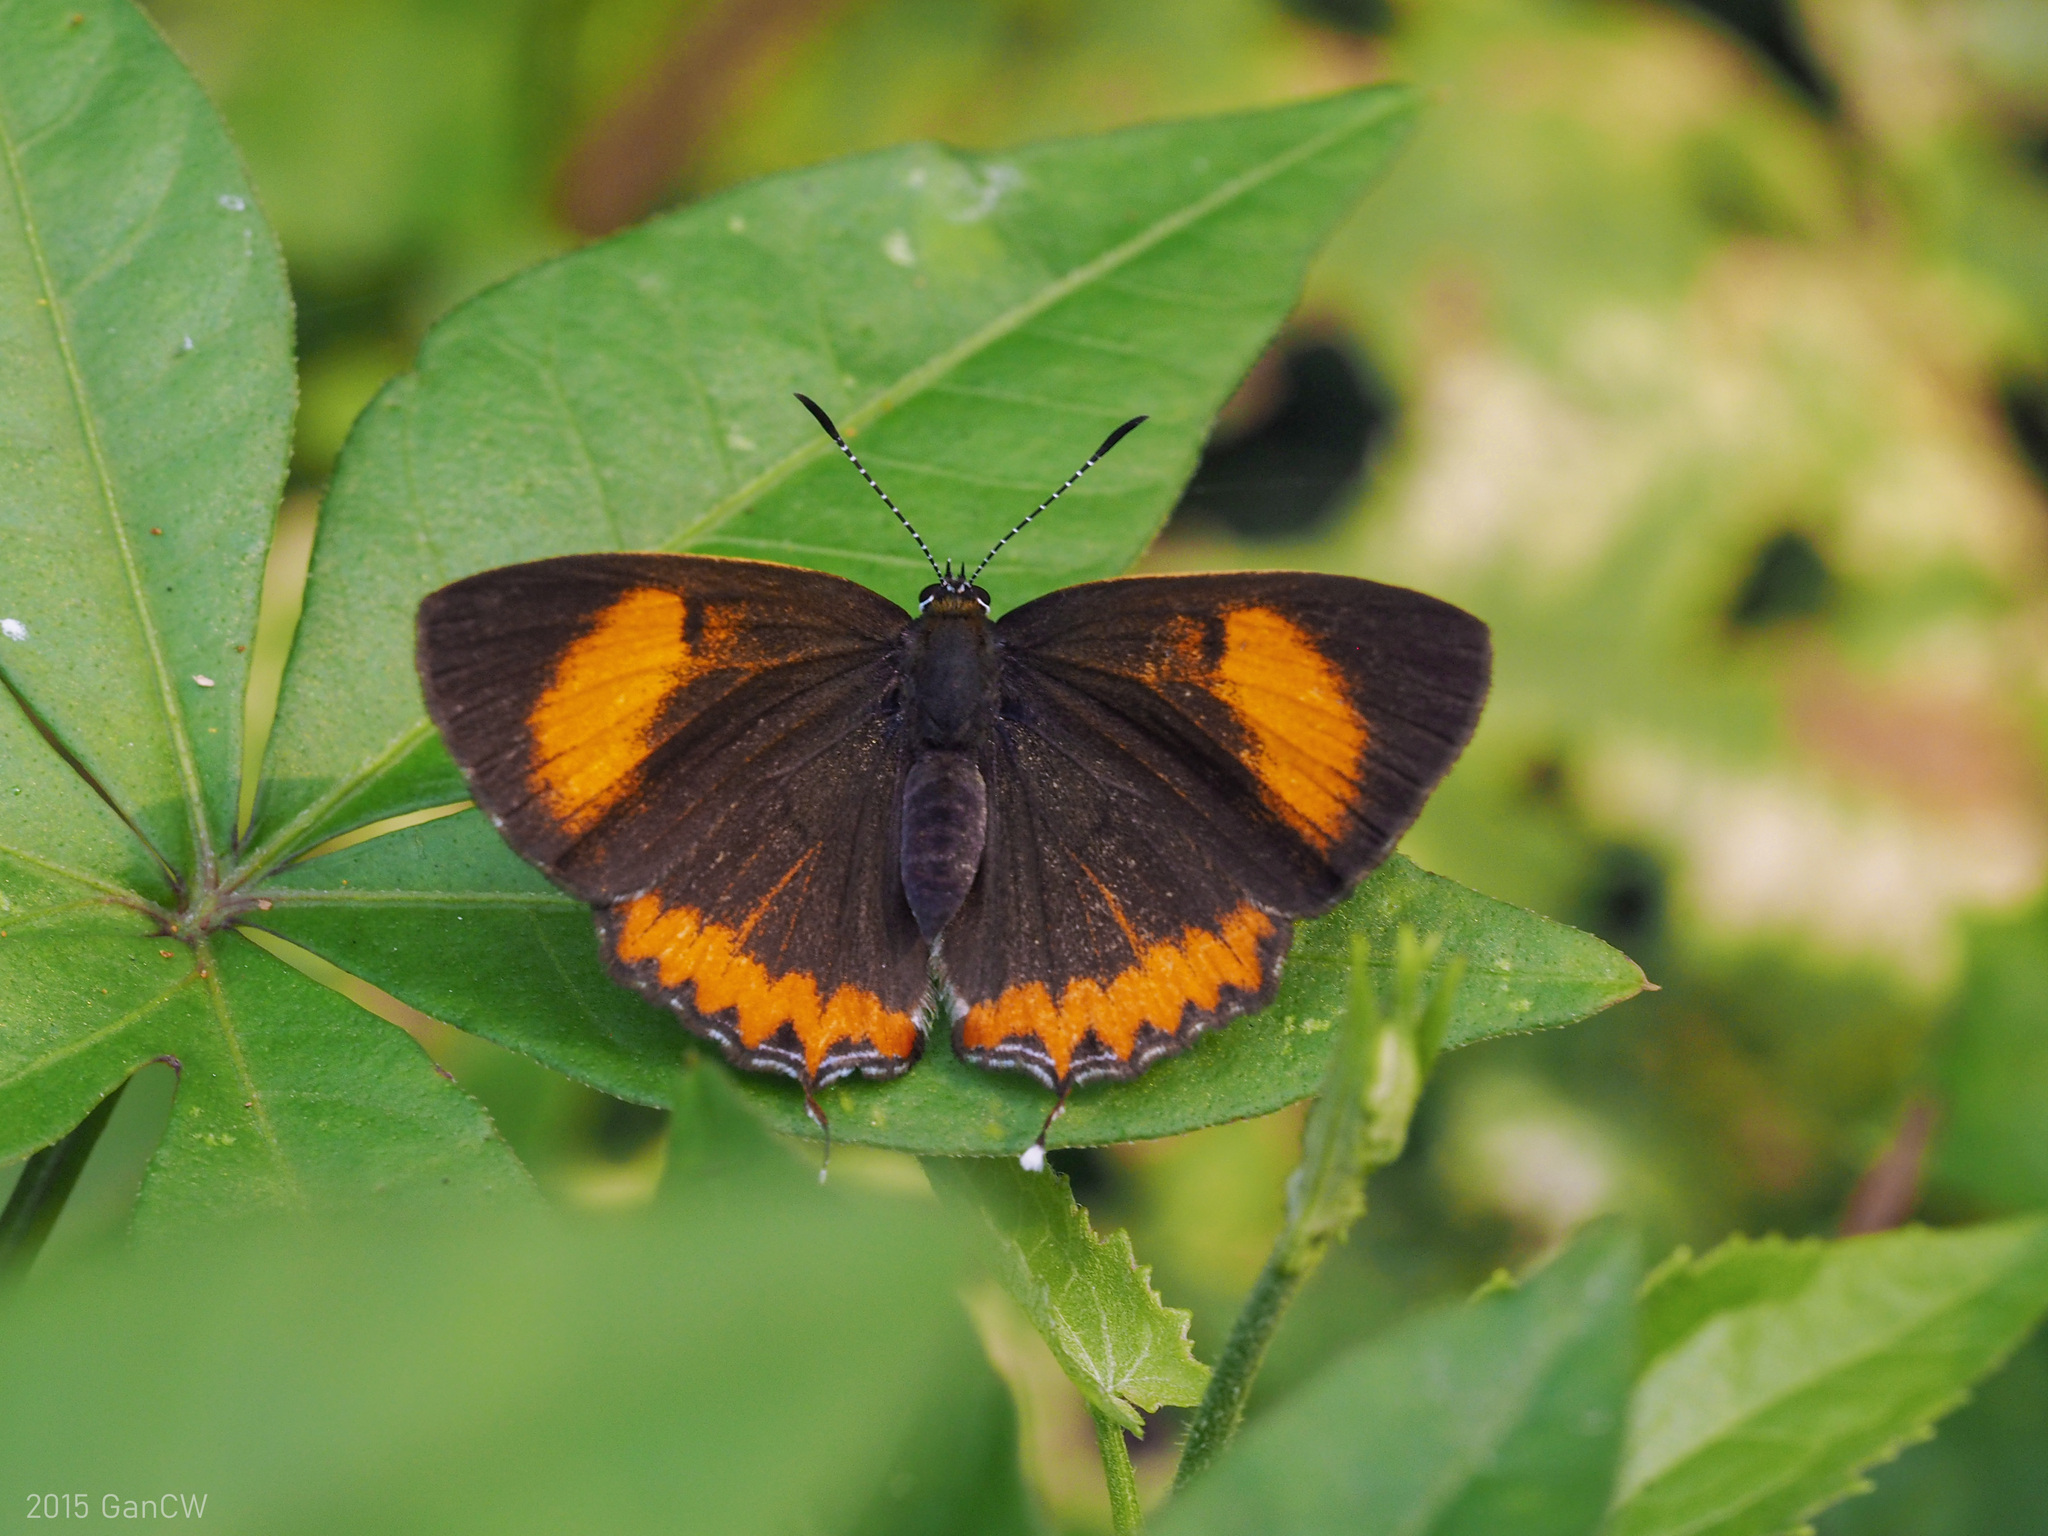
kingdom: Animalia
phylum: Arthropoda
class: Insecta
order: Lepidoptera
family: Lycaenidae
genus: Heliophorus
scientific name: Heliophorus epicles
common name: Purple sapphire
